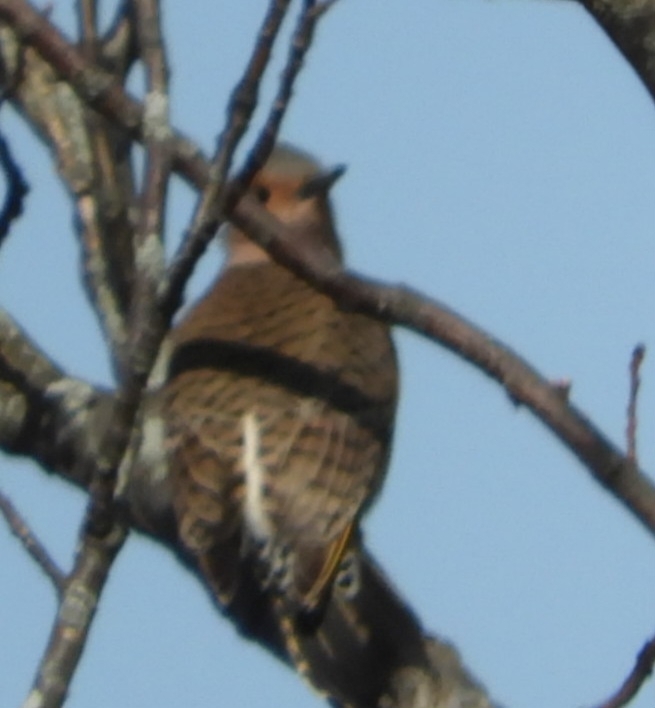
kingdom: Animalia
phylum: Chordata
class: Aves
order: Piciformes
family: Picidae
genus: Colaptes
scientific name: Colaptes auratus
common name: Northern flicker
